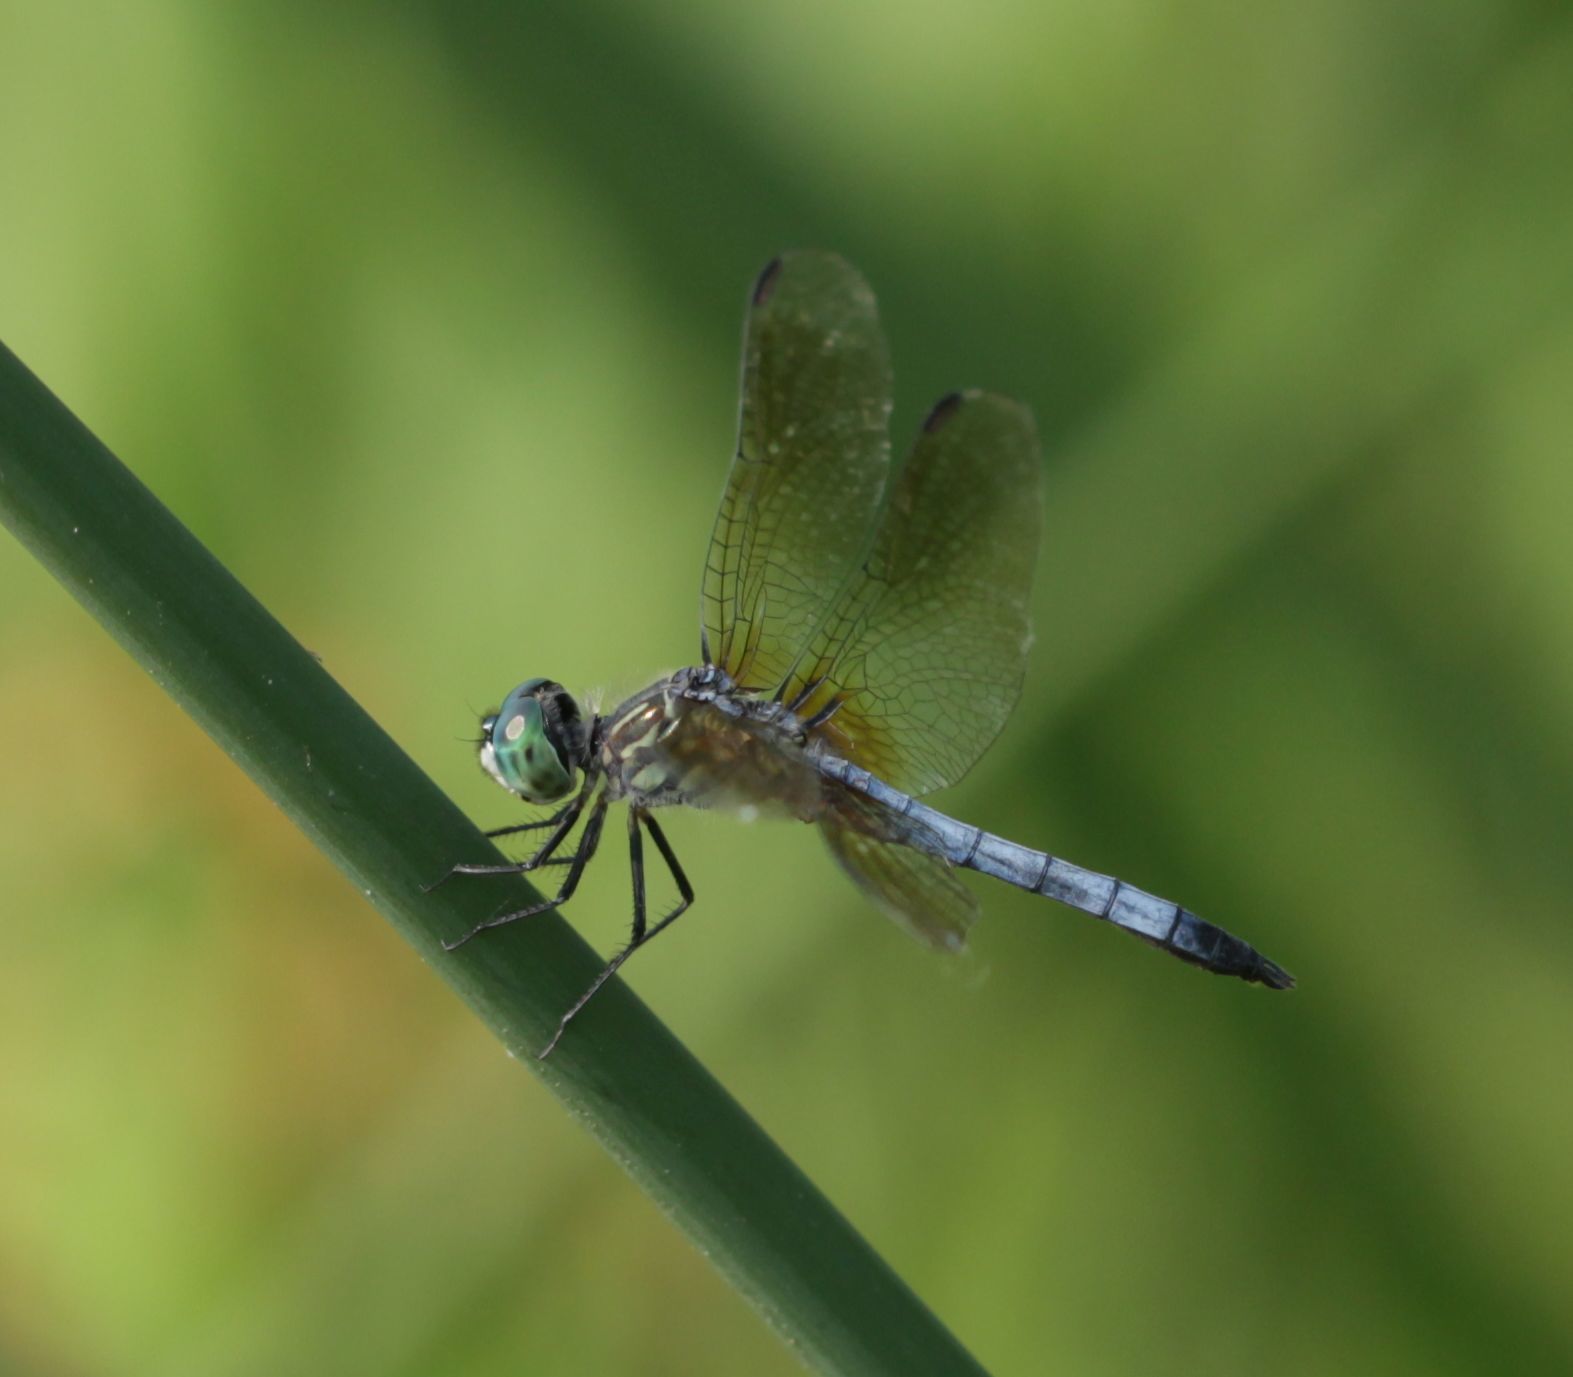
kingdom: Animalia
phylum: Arthropoda
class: Insecta
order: Odonata
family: Libellulidae
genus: Pachydiplax
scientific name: Pachydiplax longipennis
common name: Blue dasher
